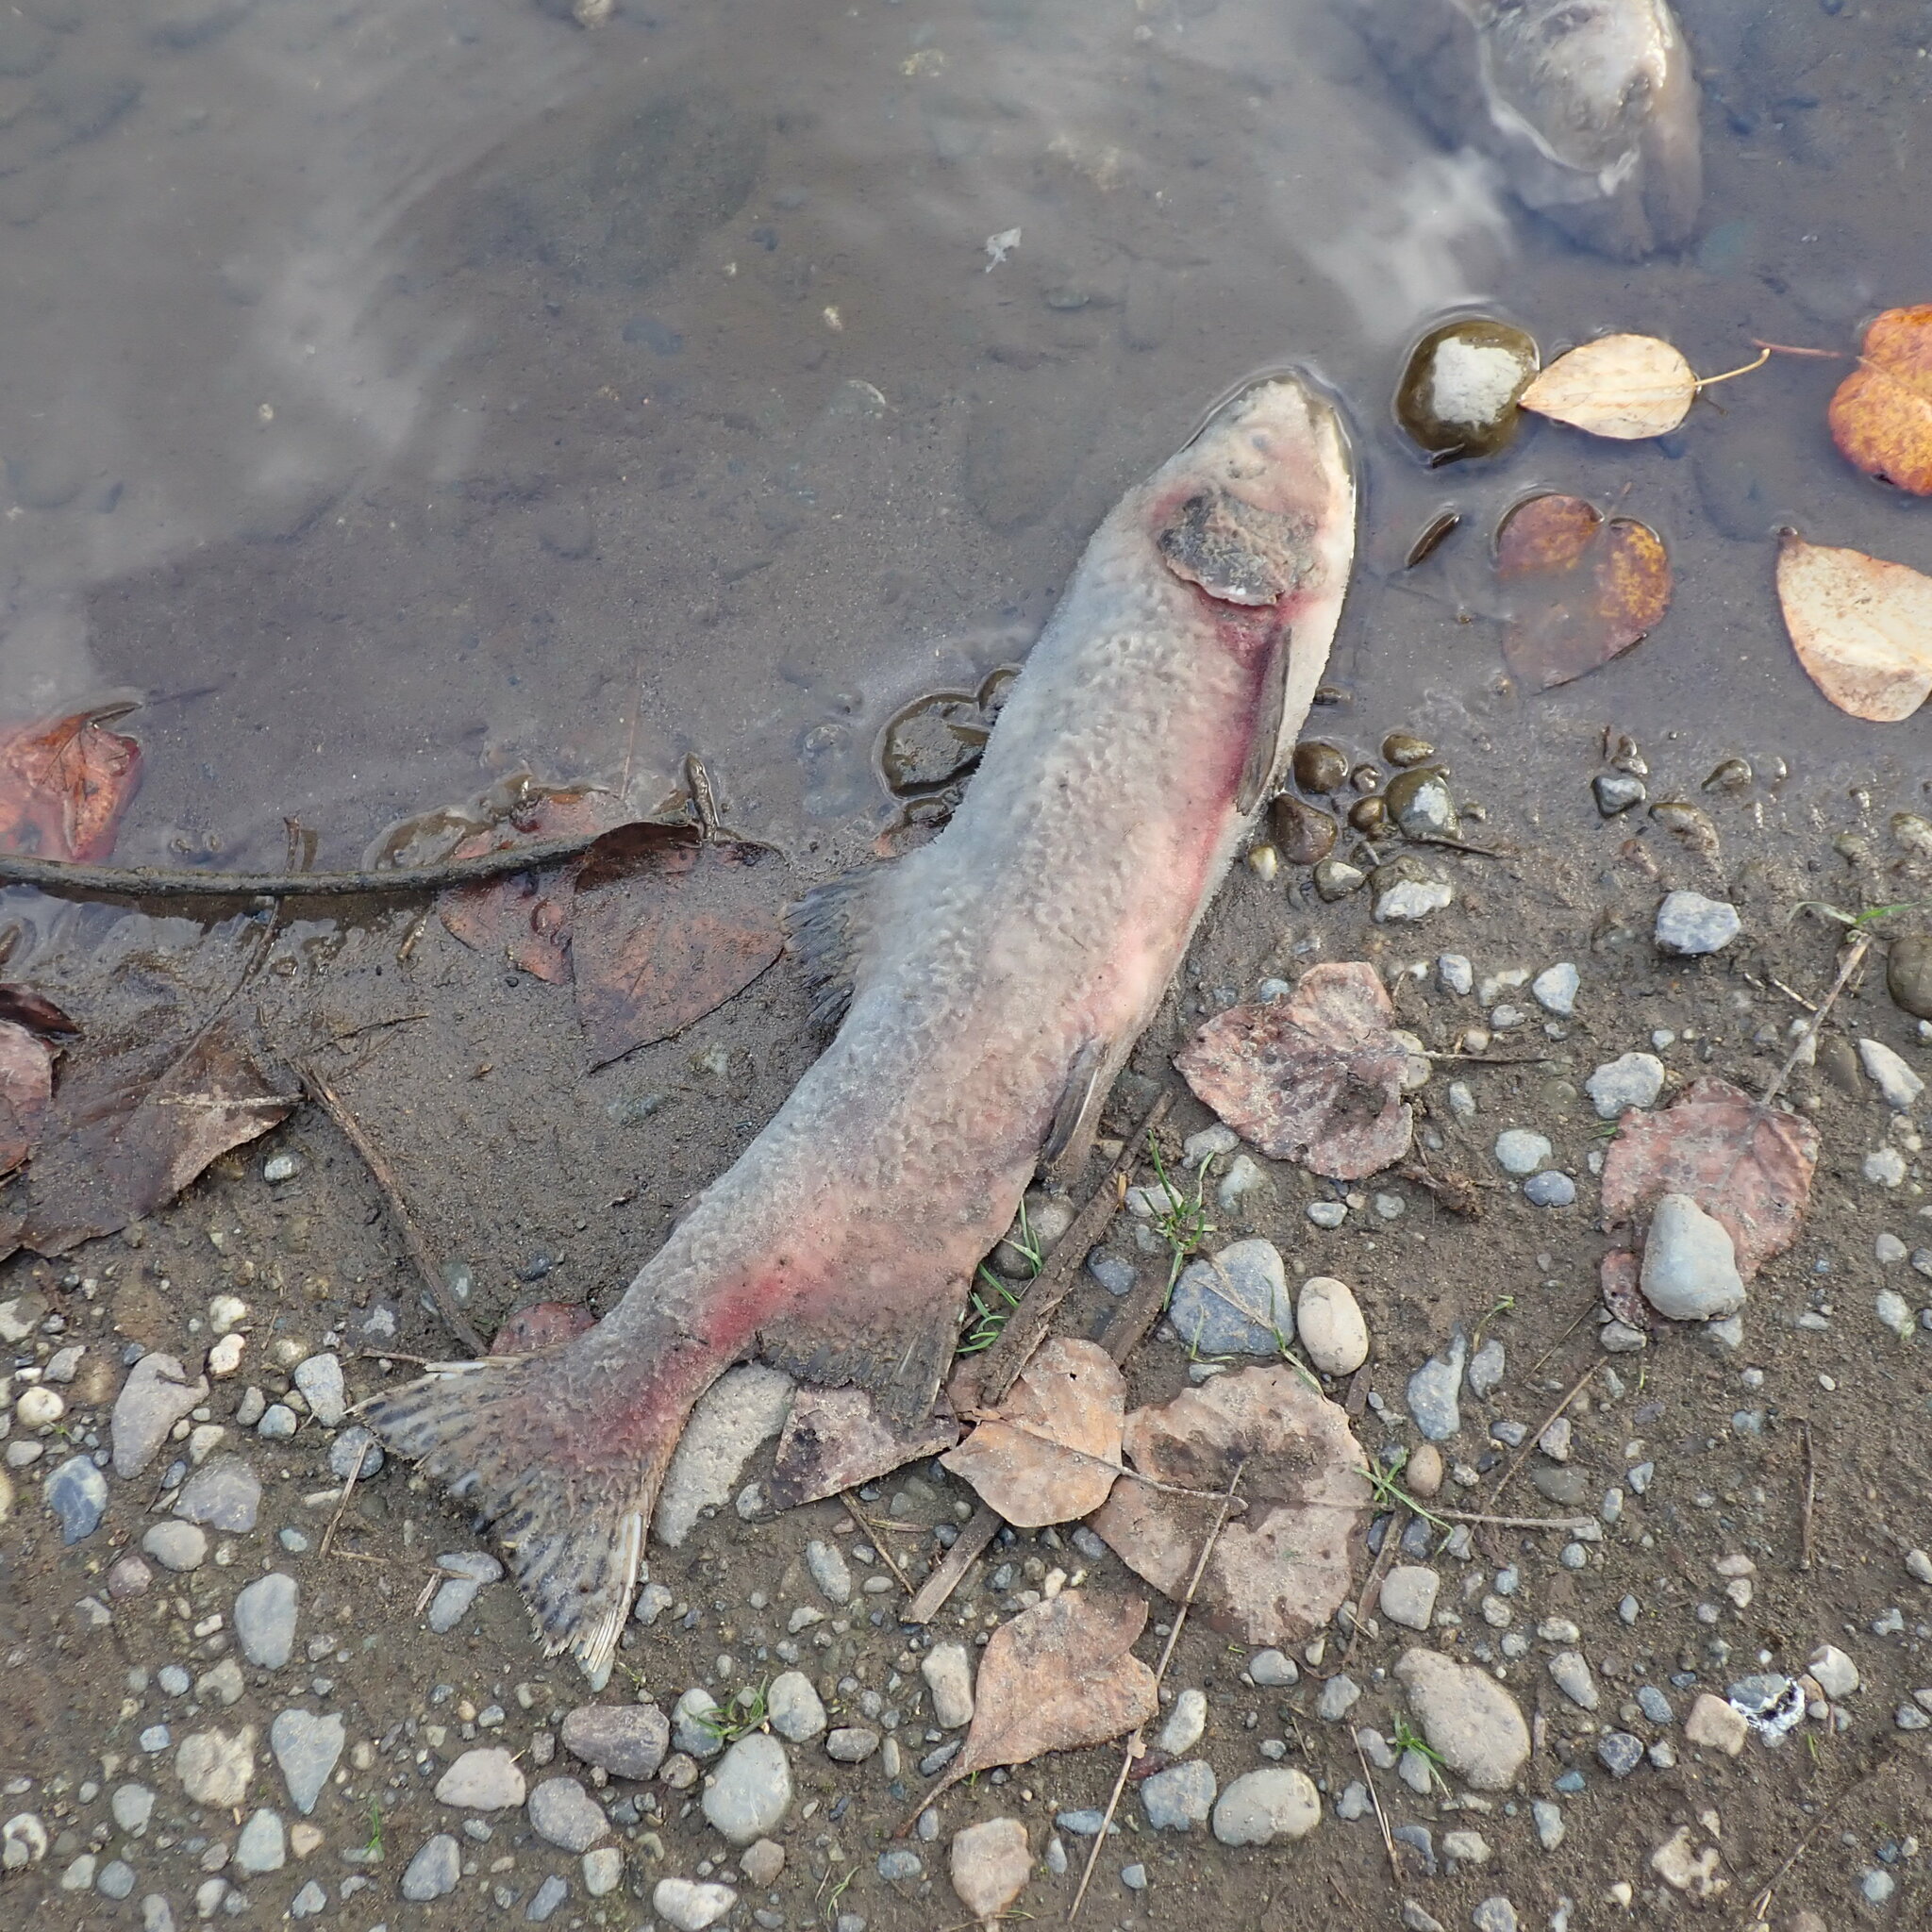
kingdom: Animalia
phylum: Chordata
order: Salmoniformes
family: Salmonidae
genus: Oncorhynchus
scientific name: Oncorhynchus gorbuscha
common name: Humpback salmon
